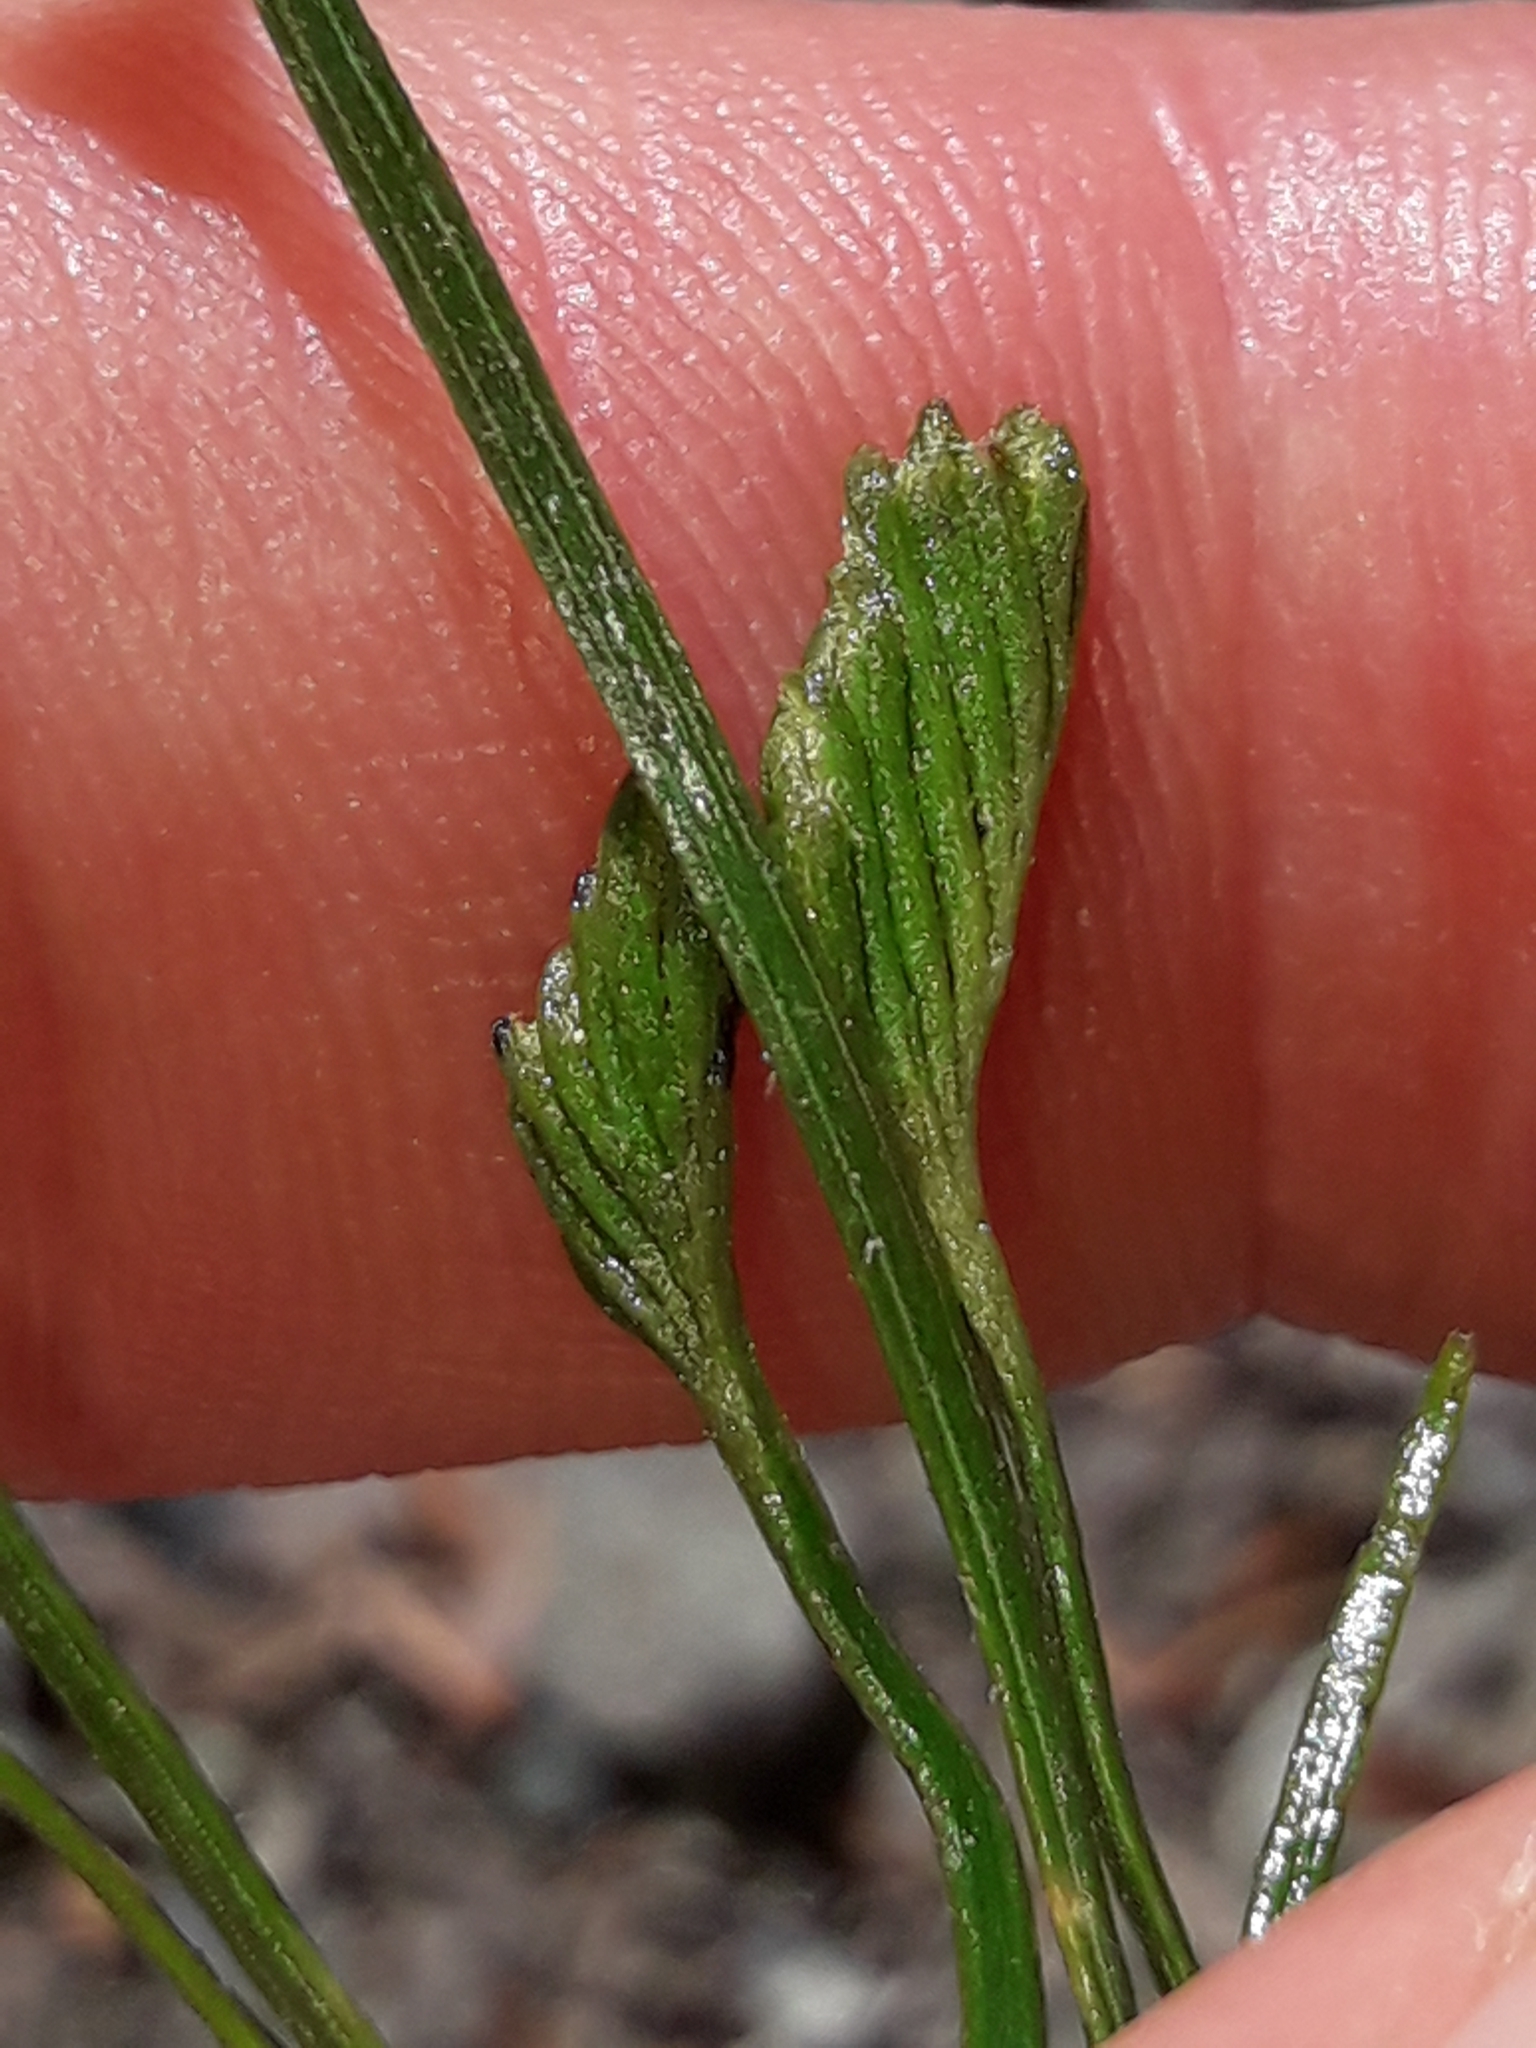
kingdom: Plantae
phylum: Tracheophyta
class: Polypodiopsida
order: Schizaeales
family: Schizaeaceae
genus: Schizaea
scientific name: Schizaea bifida
